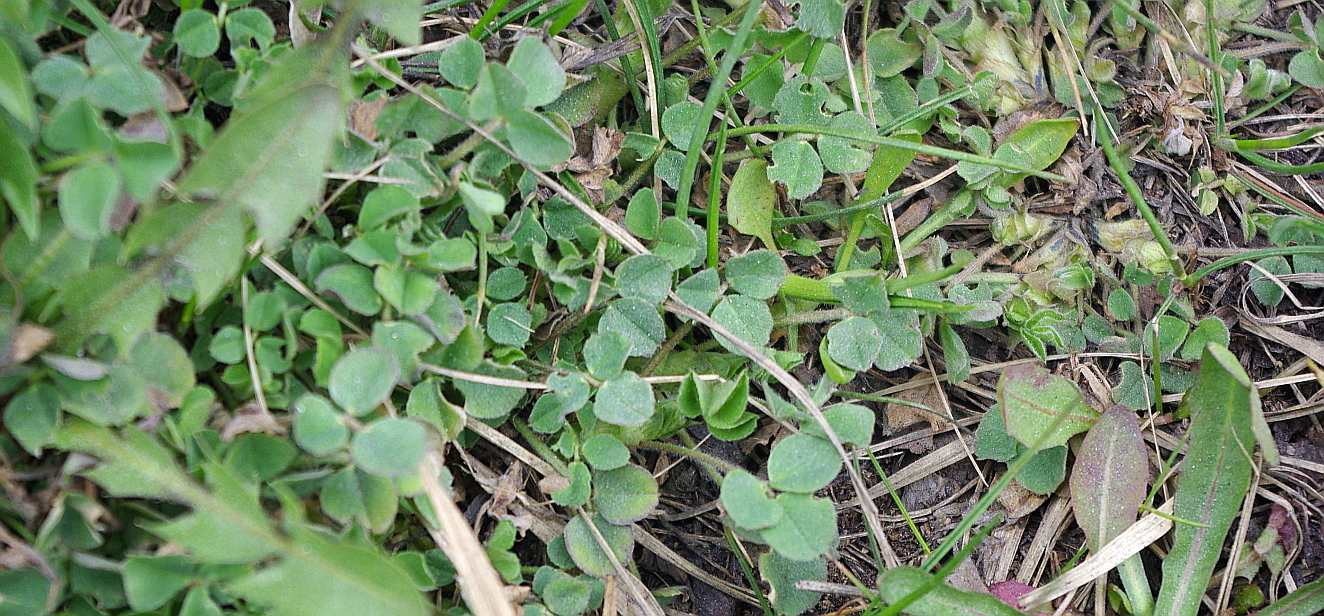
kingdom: Plantae
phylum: Tracheophyta
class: Magnoliopsida
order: Fabales
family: Fabaceae
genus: Medicago
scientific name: Medicago lupulina
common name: Black medick
